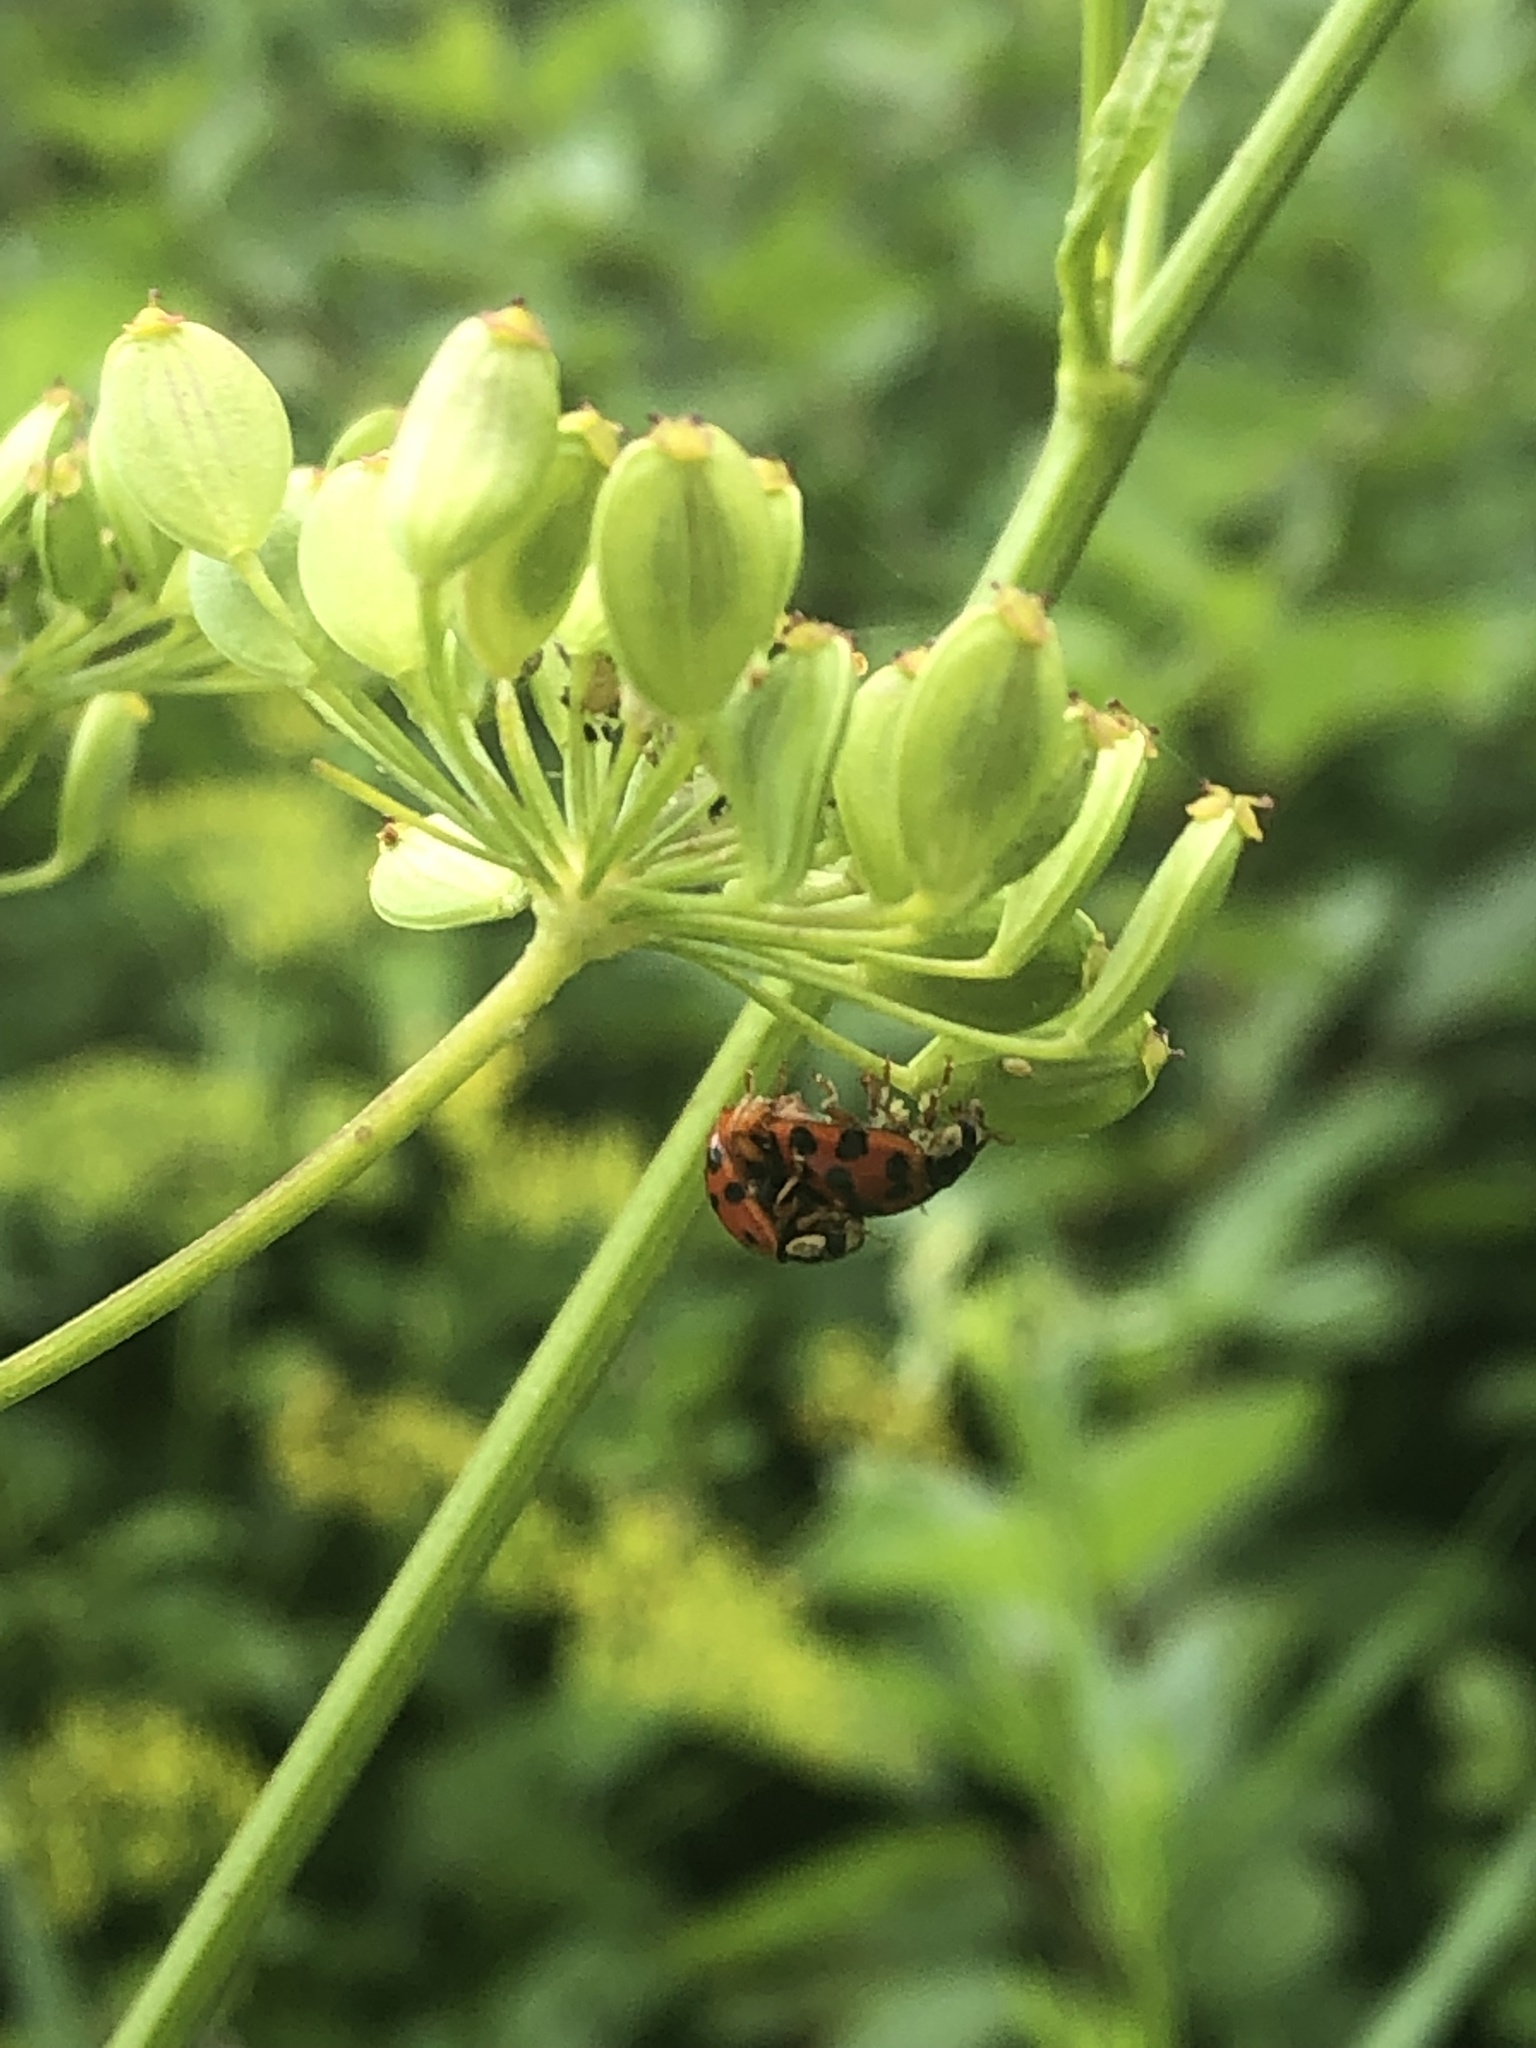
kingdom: Animalia
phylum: Arthropoda
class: Insecta
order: Coleoptera
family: Coccinellidae
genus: Harmonia
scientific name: Harmonia axyridis
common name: Harlequin ladybird
